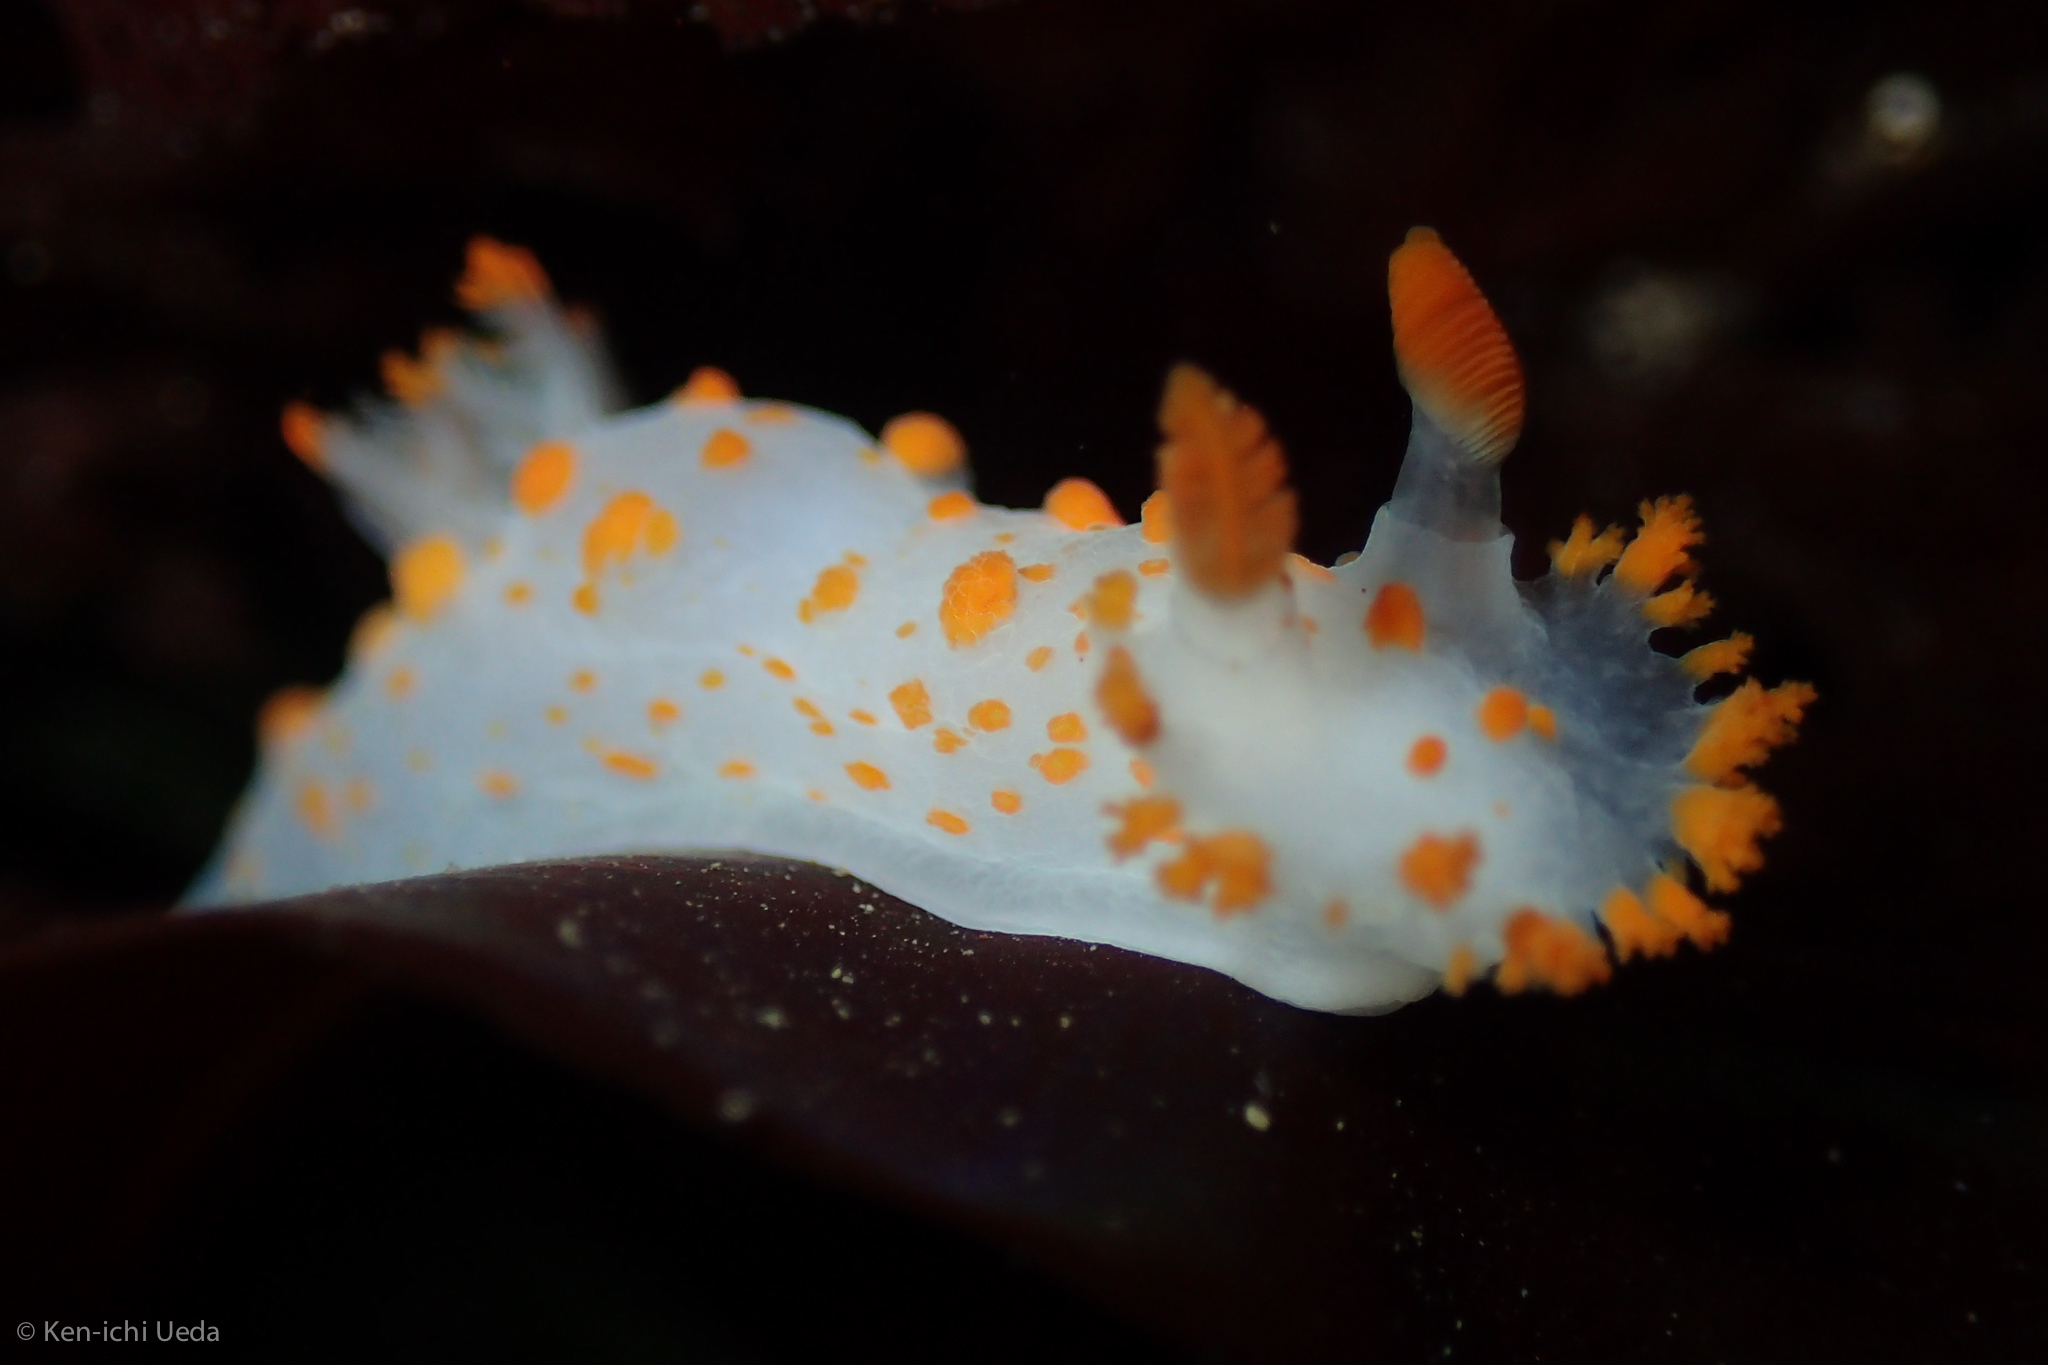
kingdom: Animalia
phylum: Mollusca
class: Gastropoda
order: Nudibranchia
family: Polyceridae
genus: Triopha
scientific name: Triopha catalinae
